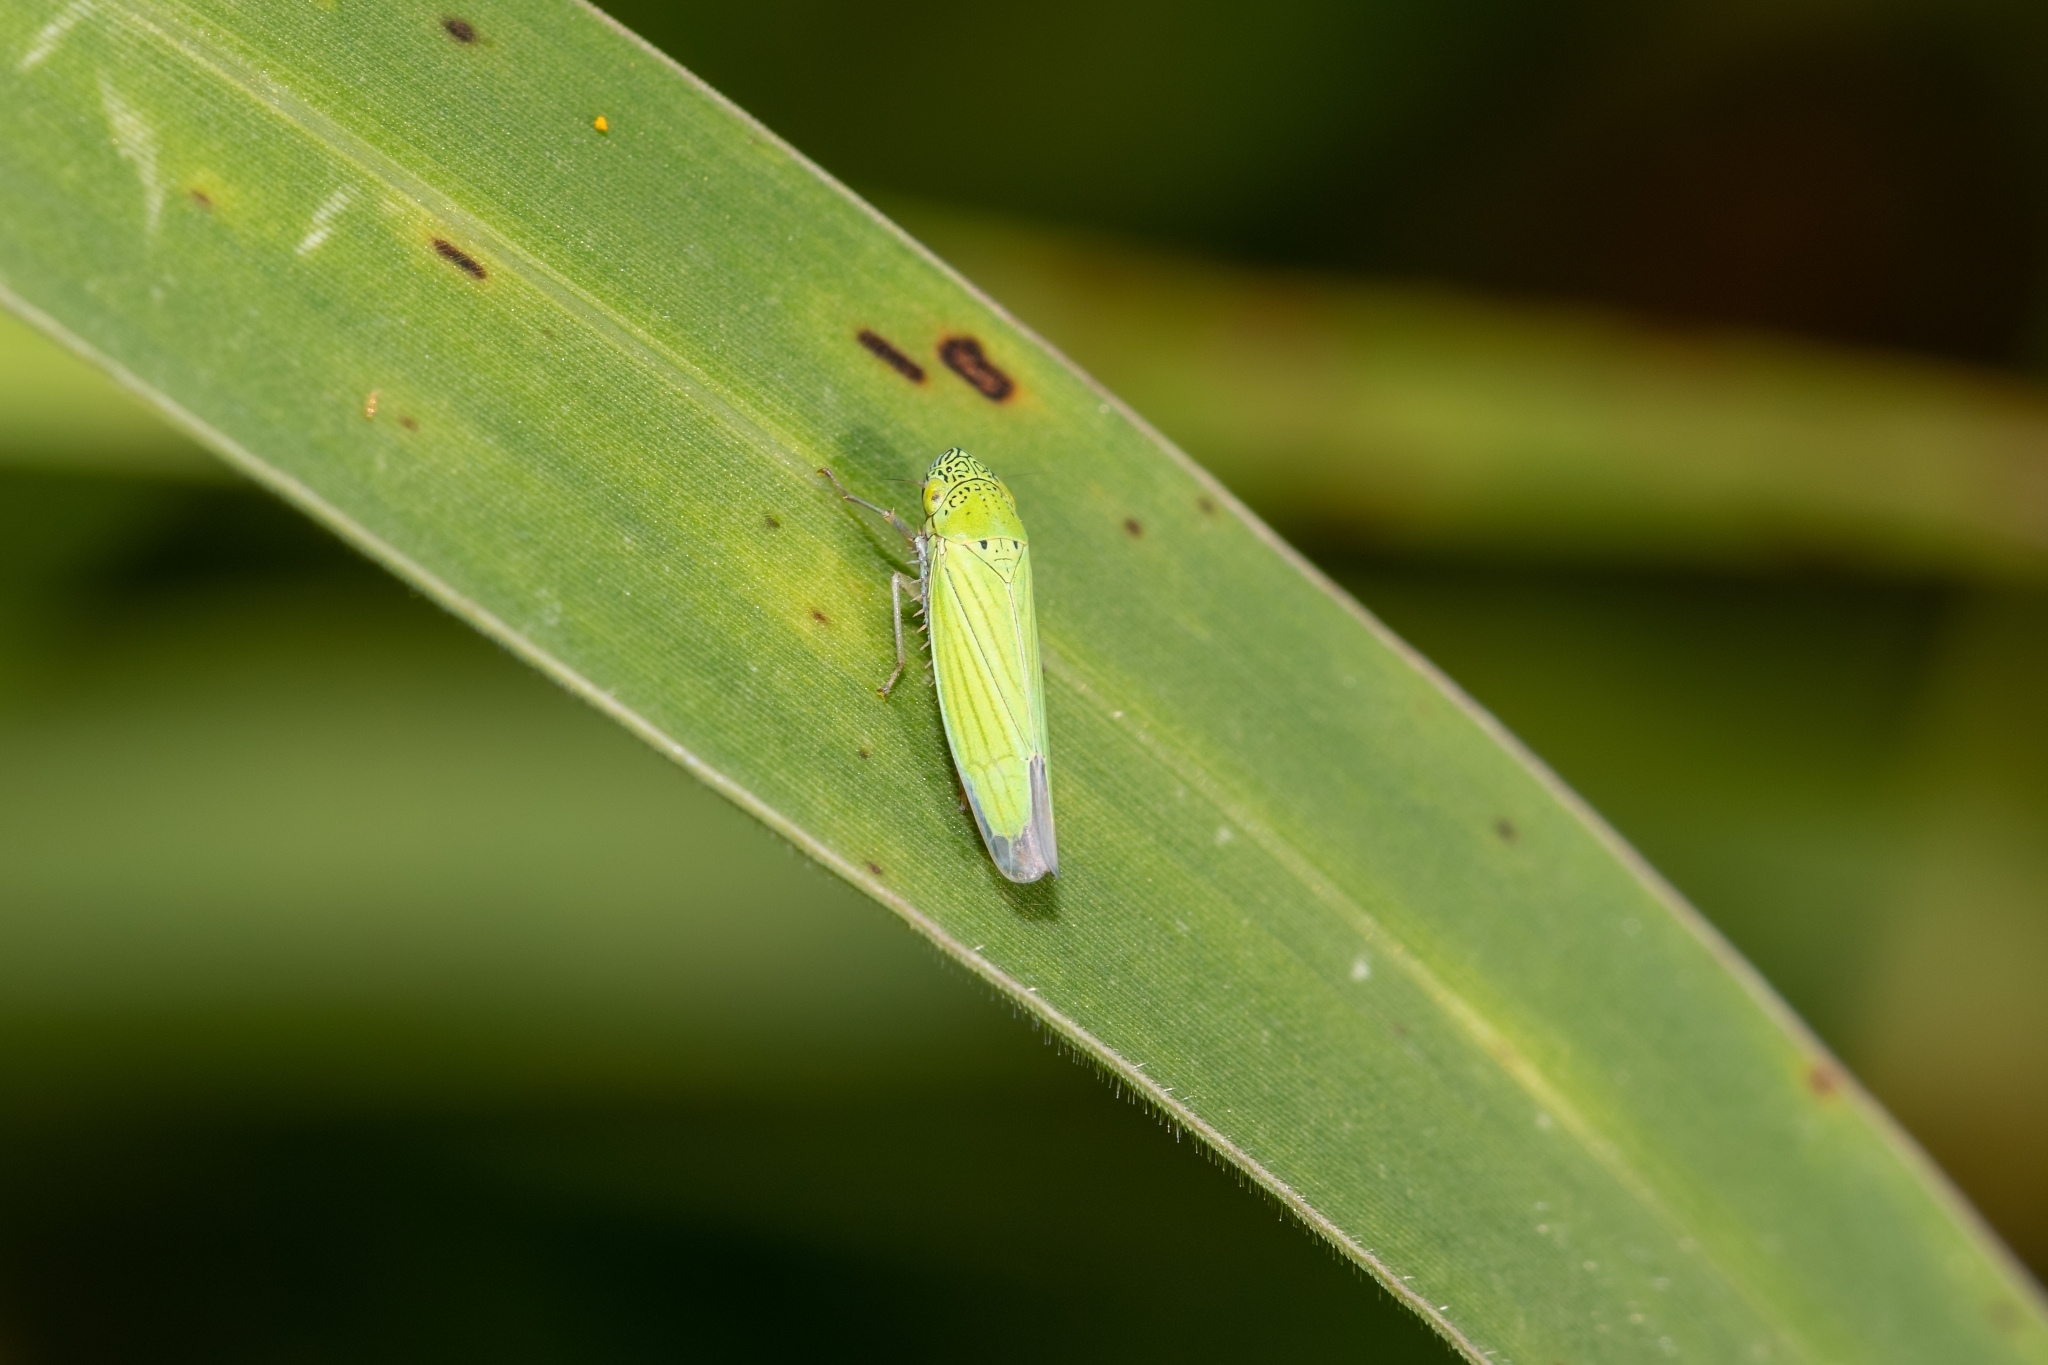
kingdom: Animalia
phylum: Arthropoda
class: Insecta
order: Hemiptera
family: Cicadellidae
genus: Hortensia
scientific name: Hortensia similis
